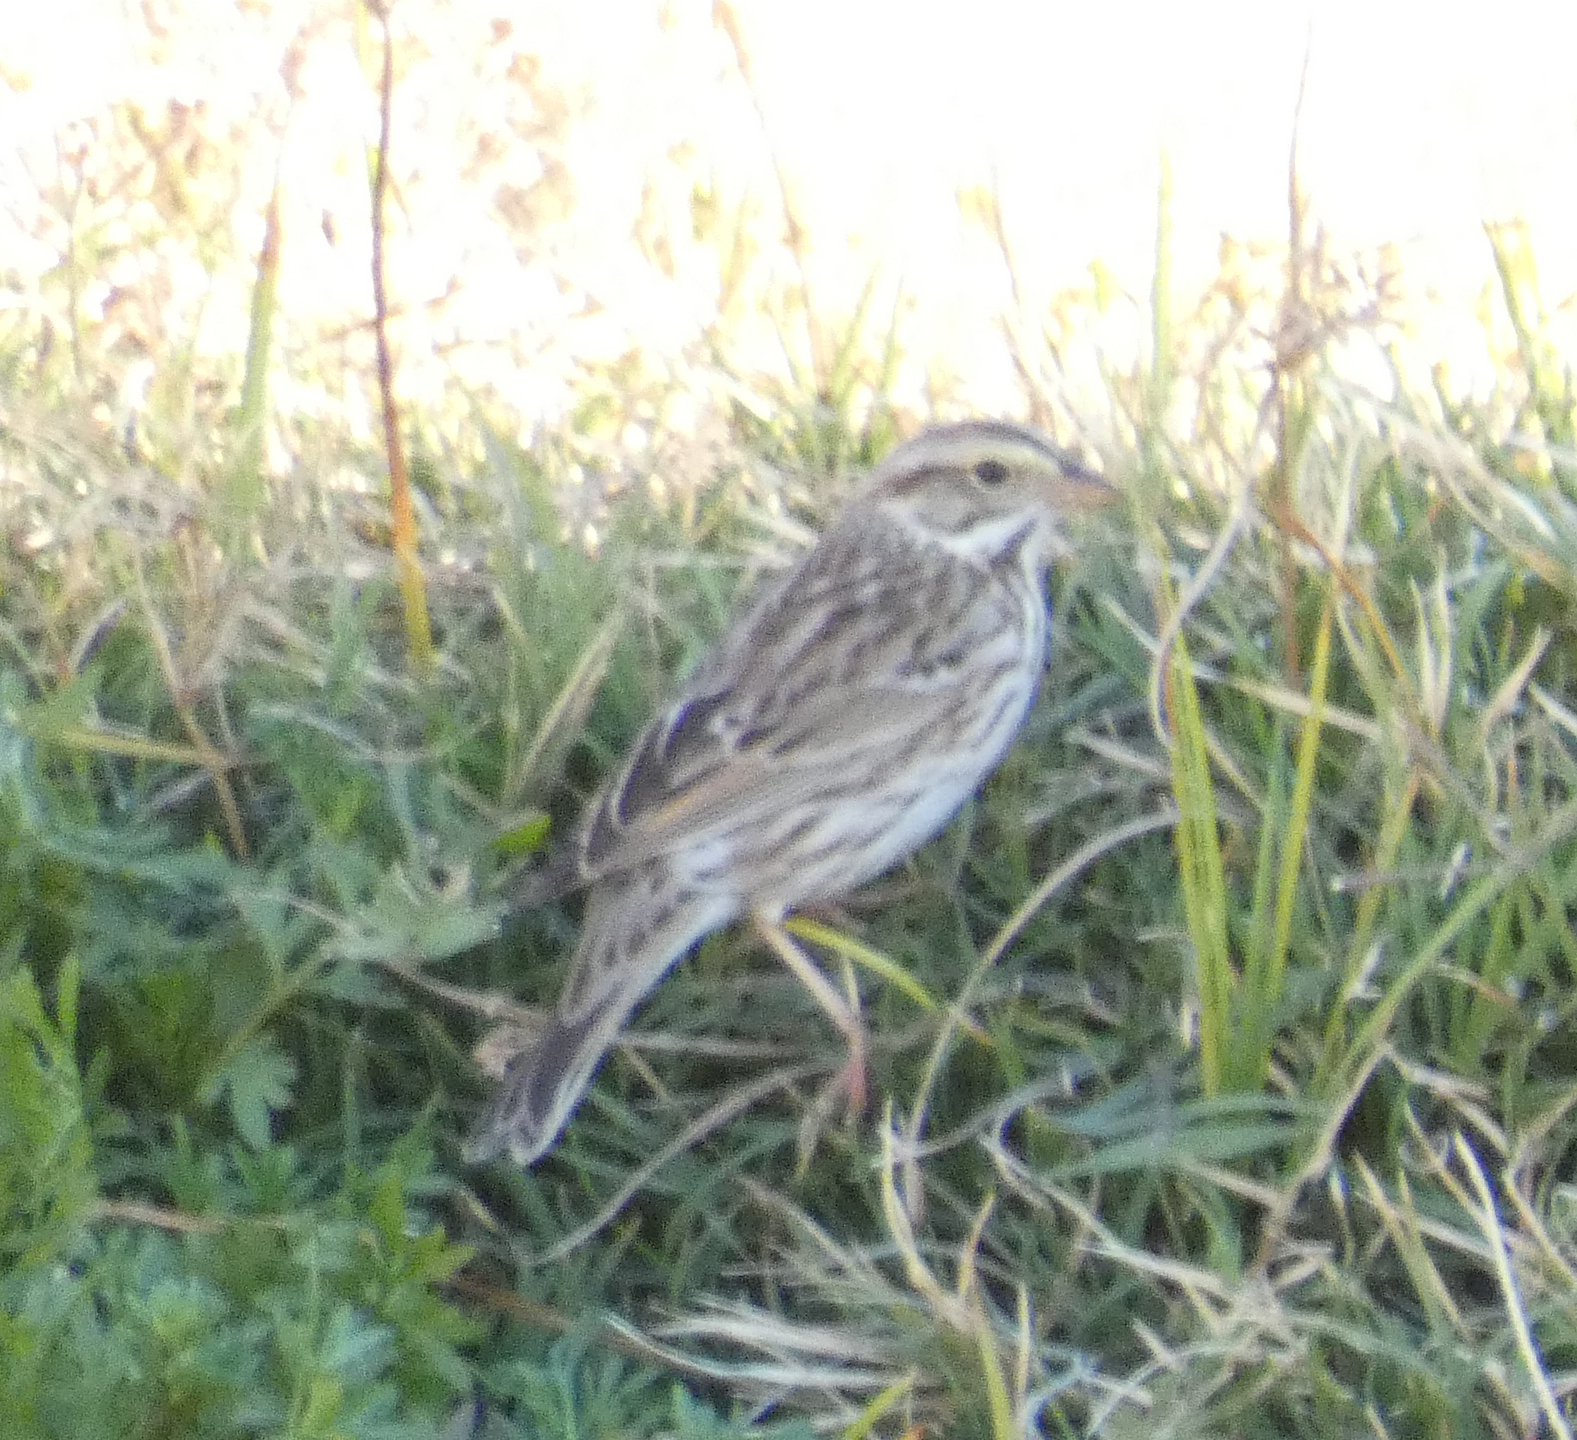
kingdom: Animalia
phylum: Chordata
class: Aves
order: Passeriformes
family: Passerellidae
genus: Passerculus
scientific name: Passerculus sandwichensis
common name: Savannah sparrow
